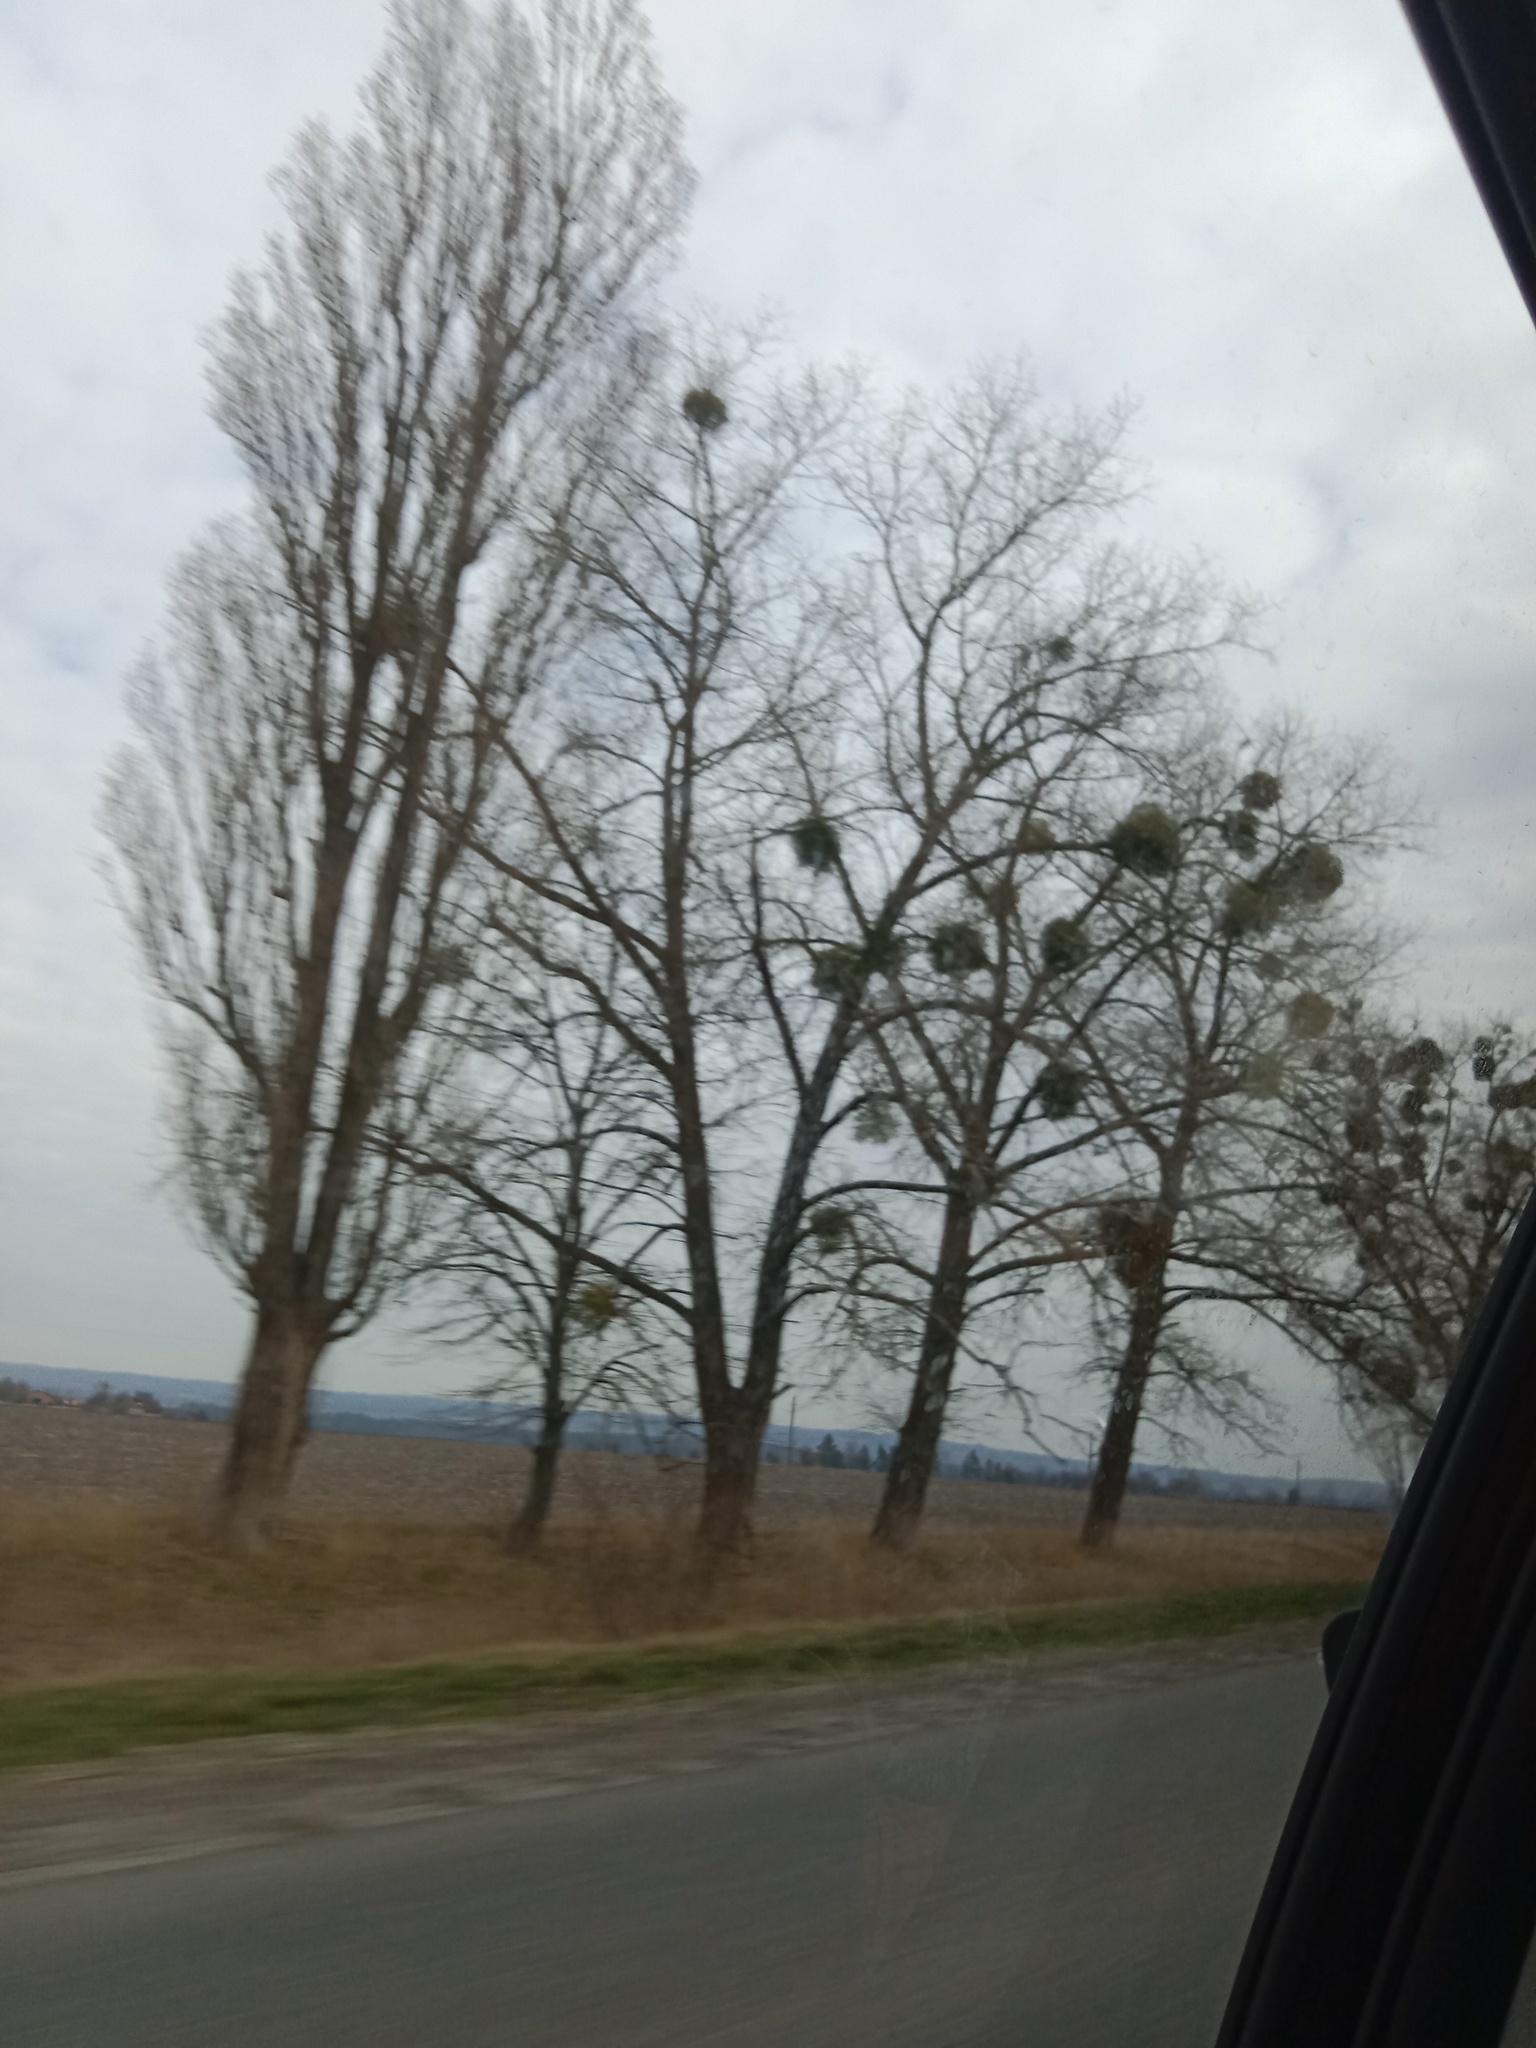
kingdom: Plantae
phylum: Tracheophyta
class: Magnoliopsida
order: Santalales
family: Viscaceae
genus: Viscum
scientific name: Viscum album
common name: Mistletoe
